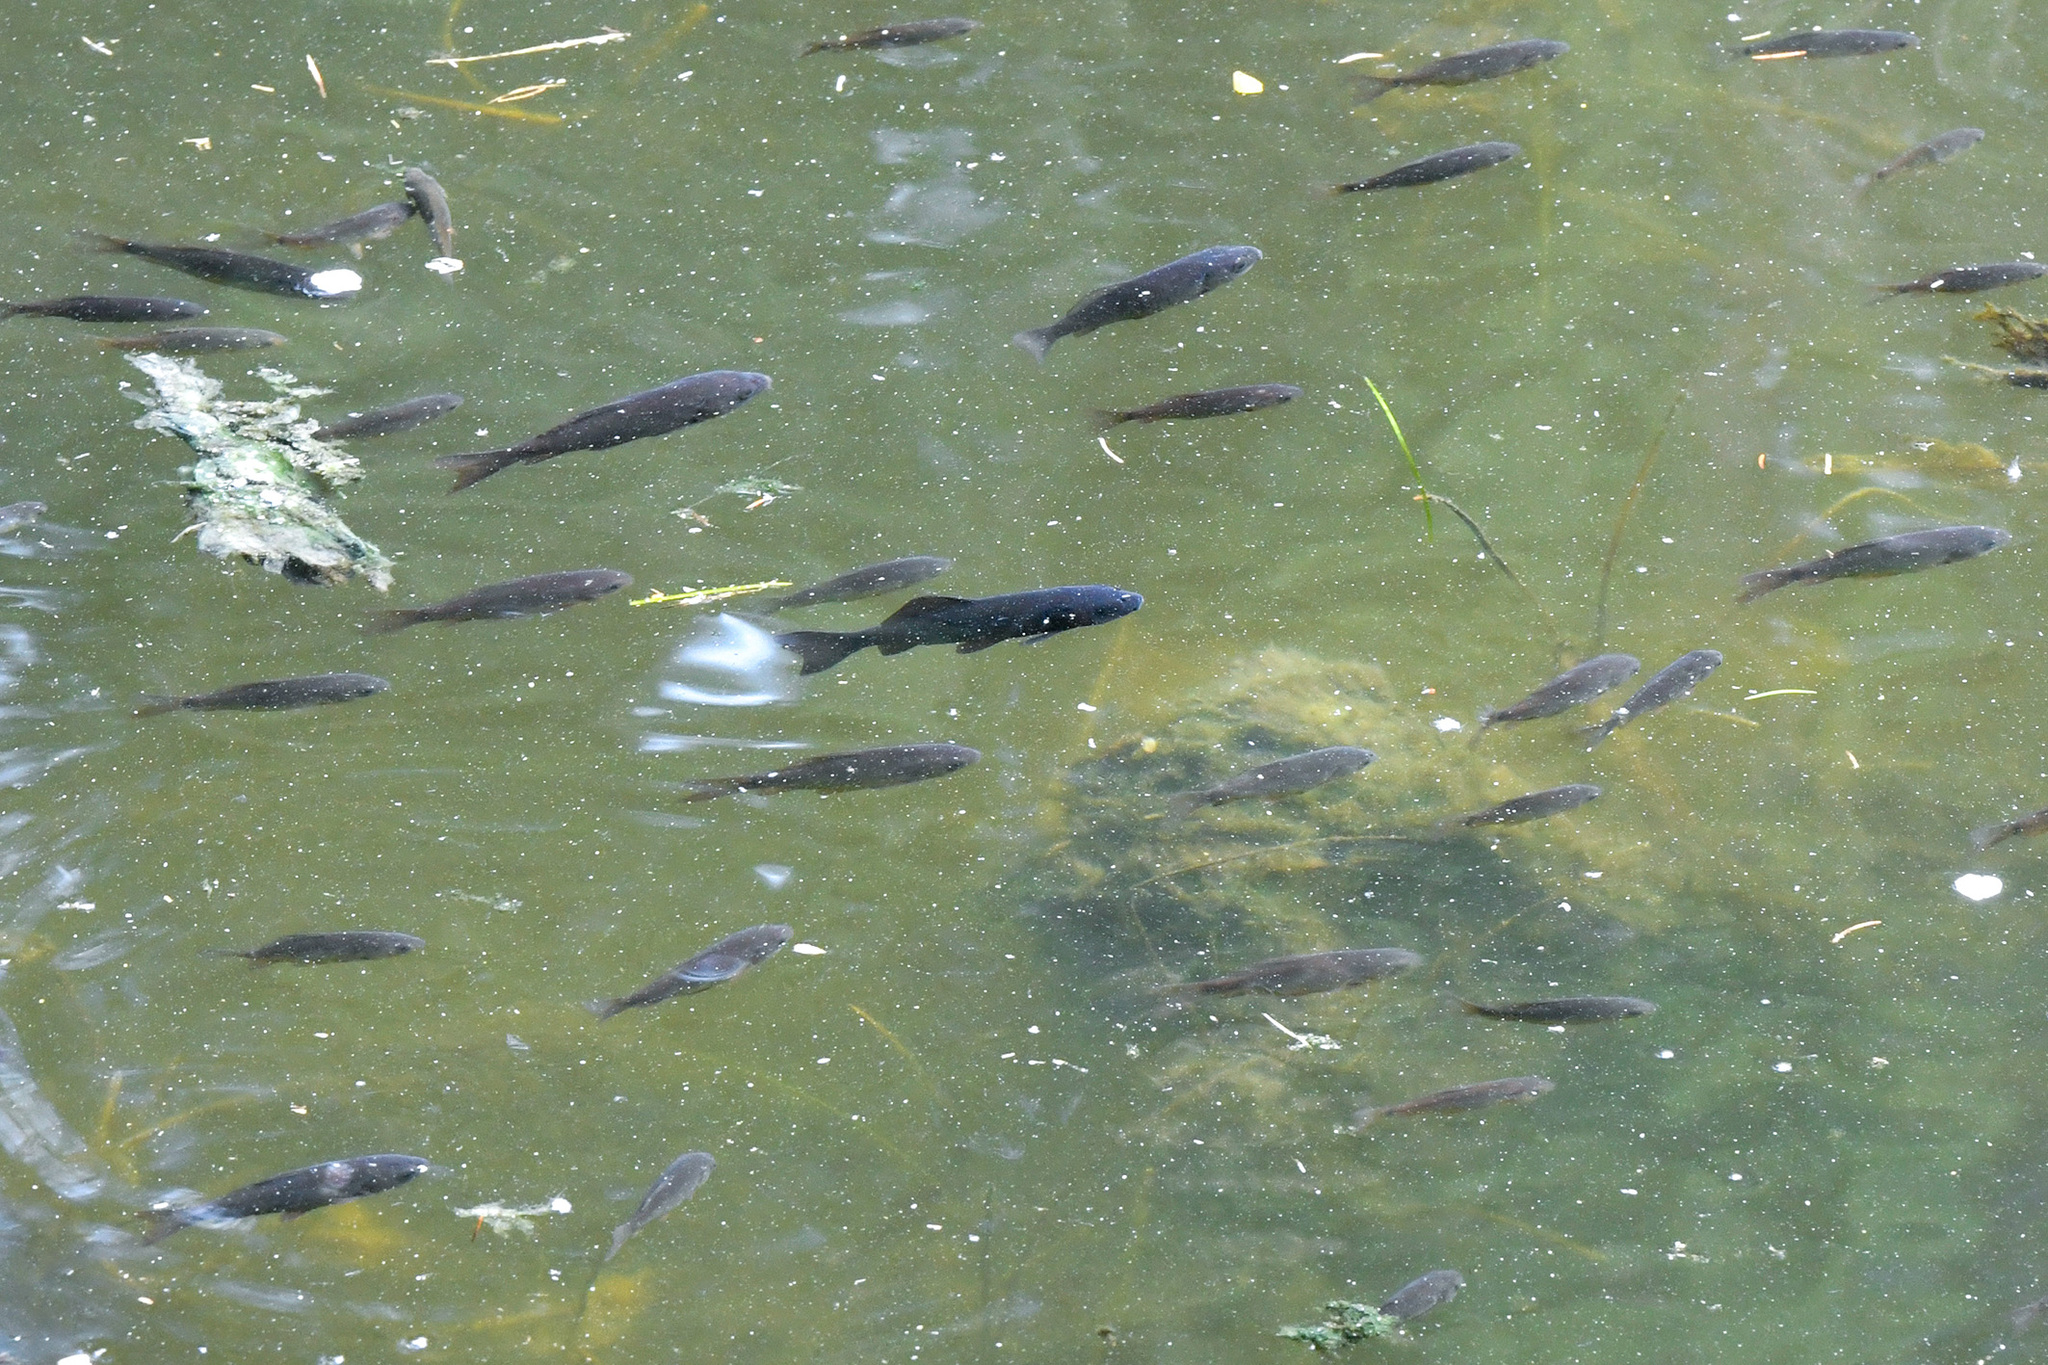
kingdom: Animalia
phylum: Chordata
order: Cypriniformes
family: Cyprinidae
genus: Carassius
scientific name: Carassius auratus
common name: Goldfish
